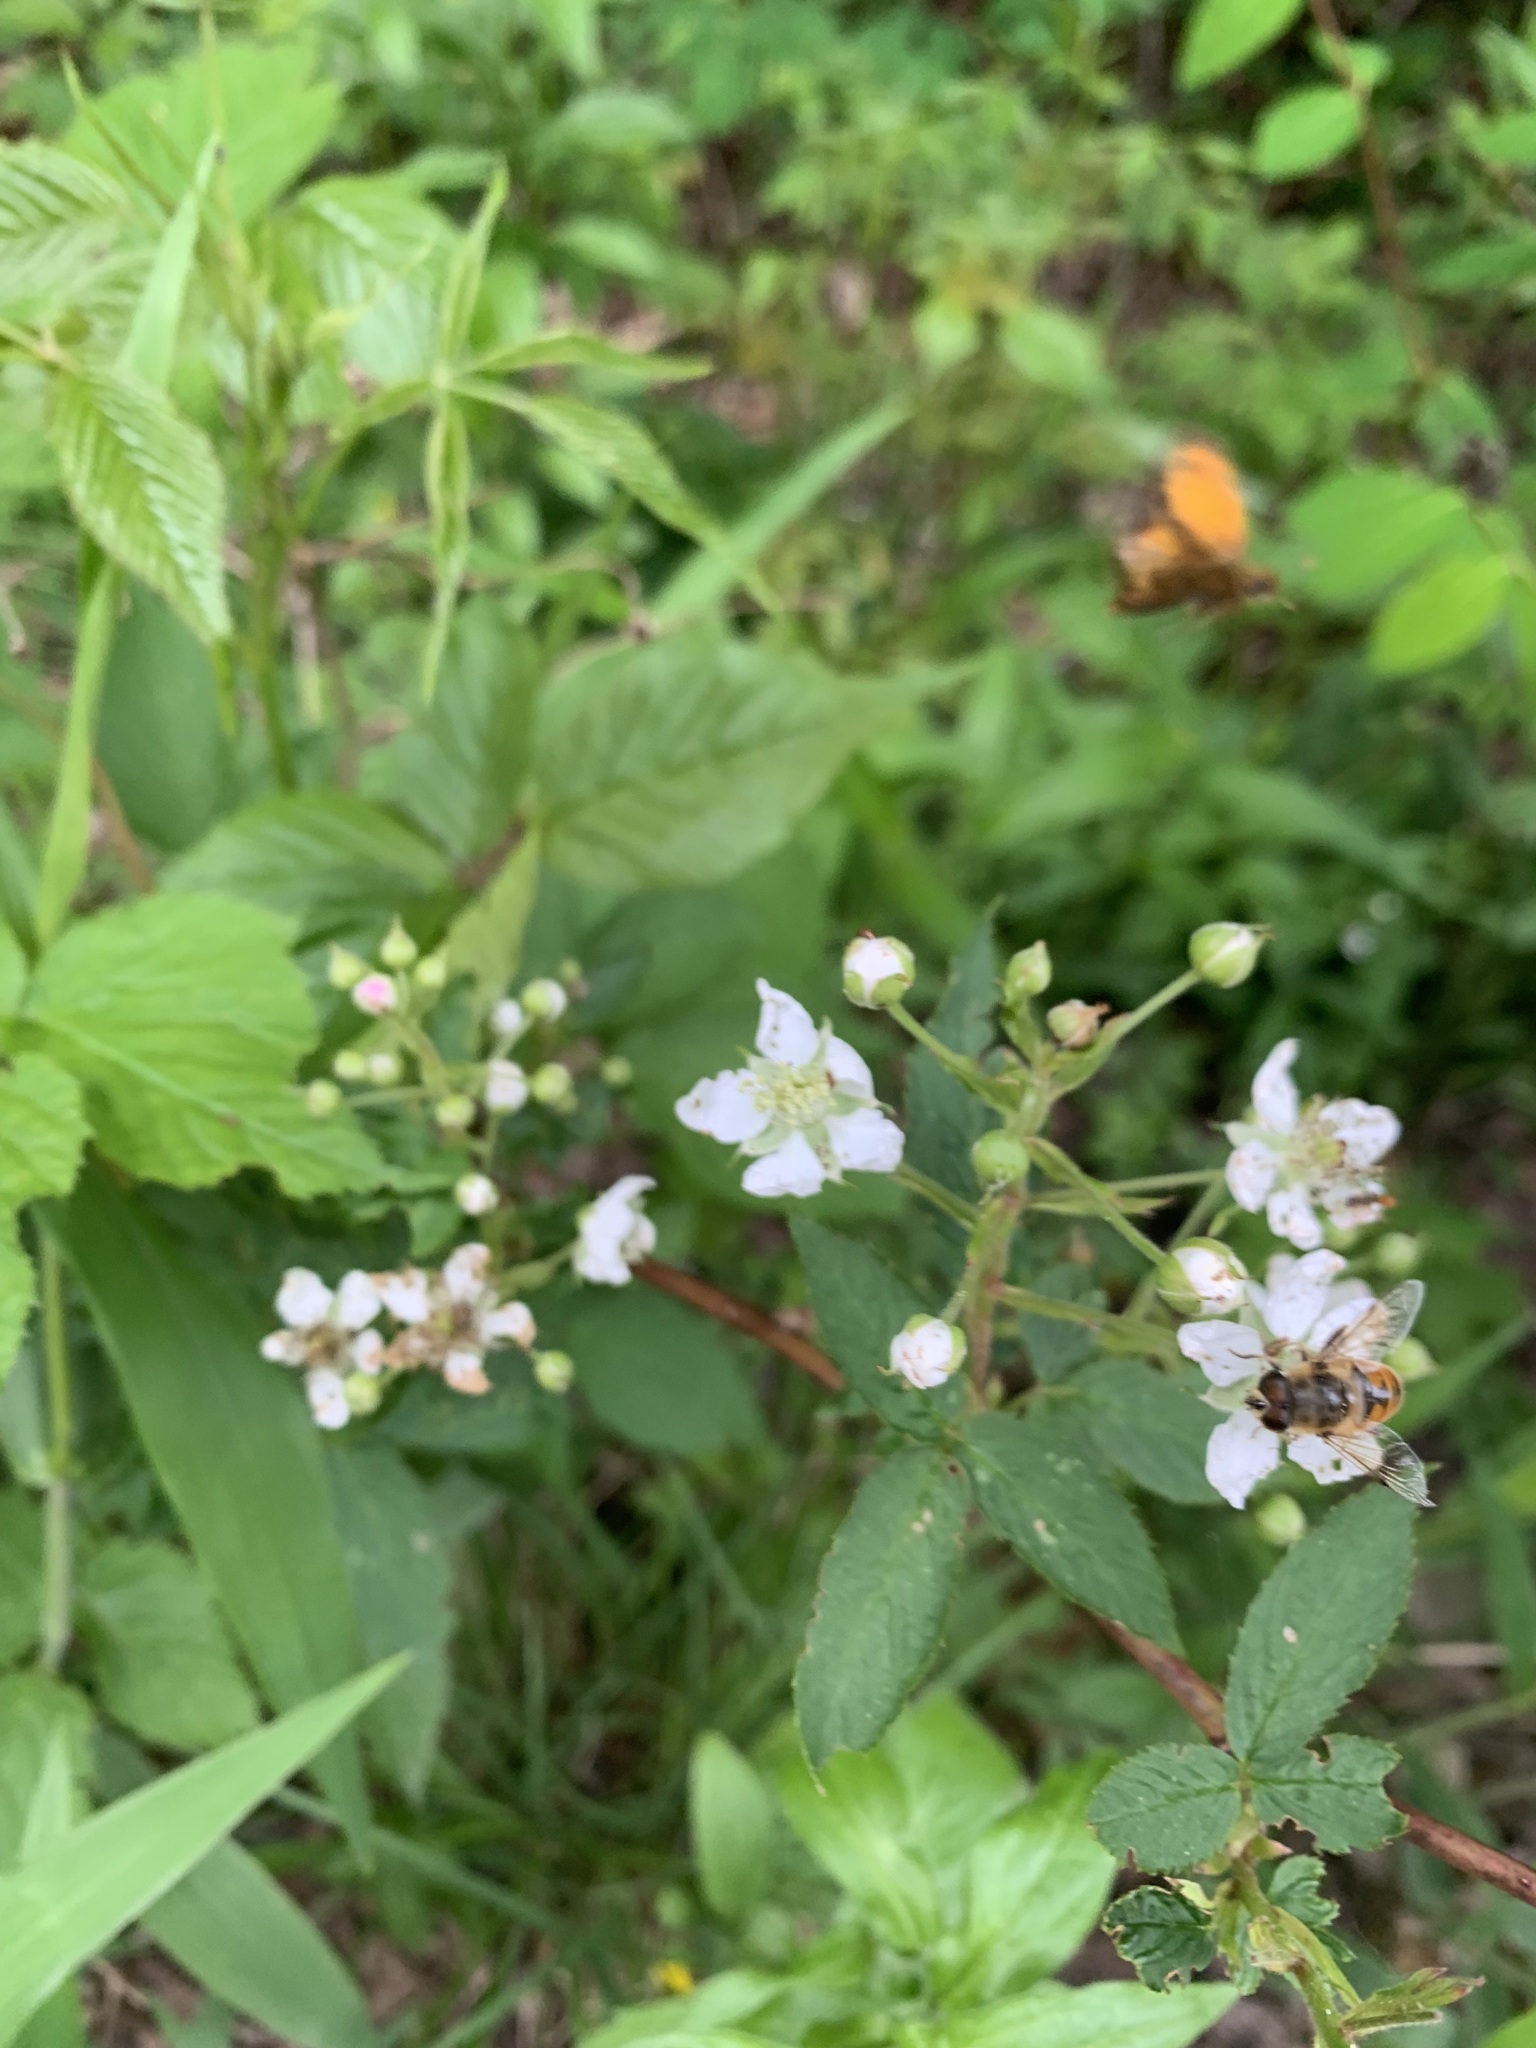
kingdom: Animalia
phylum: Arthropoda
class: Insecta
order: Diptera
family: Syrphidae
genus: Eristalis
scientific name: Eristalis tenax
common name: Drone fly
